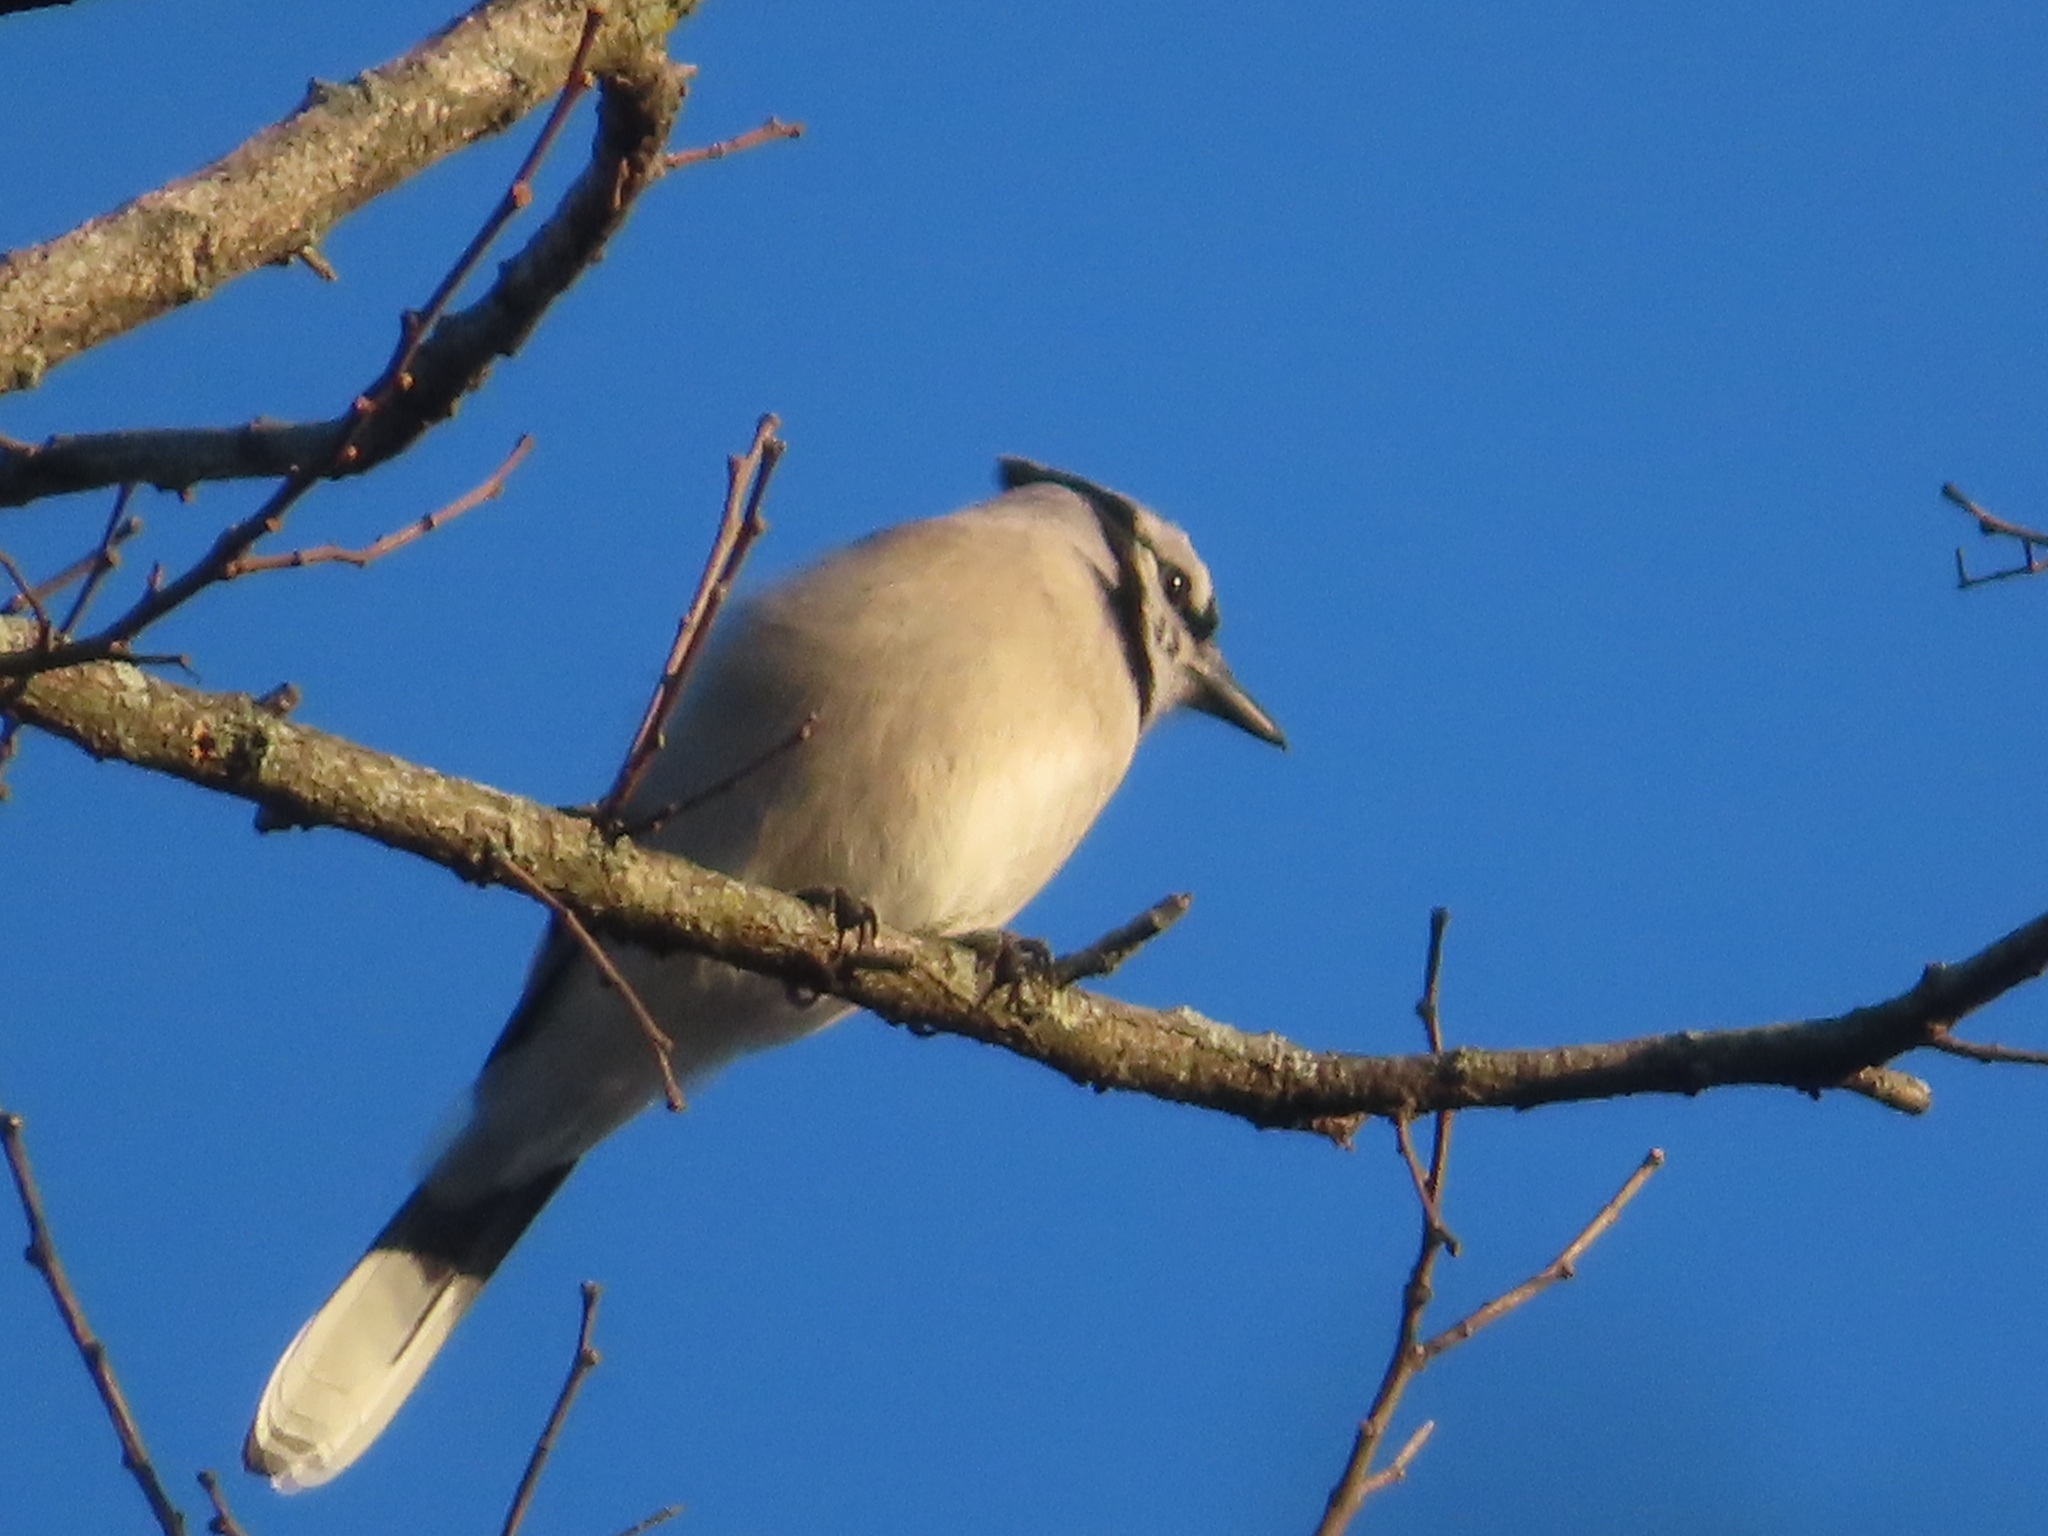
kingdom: Animalia
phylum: Chordata
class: Aves
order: Passeriformes
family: Corvidae
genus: Cyanocitta
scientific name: Cyanocitta cristata
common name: Blue jay
